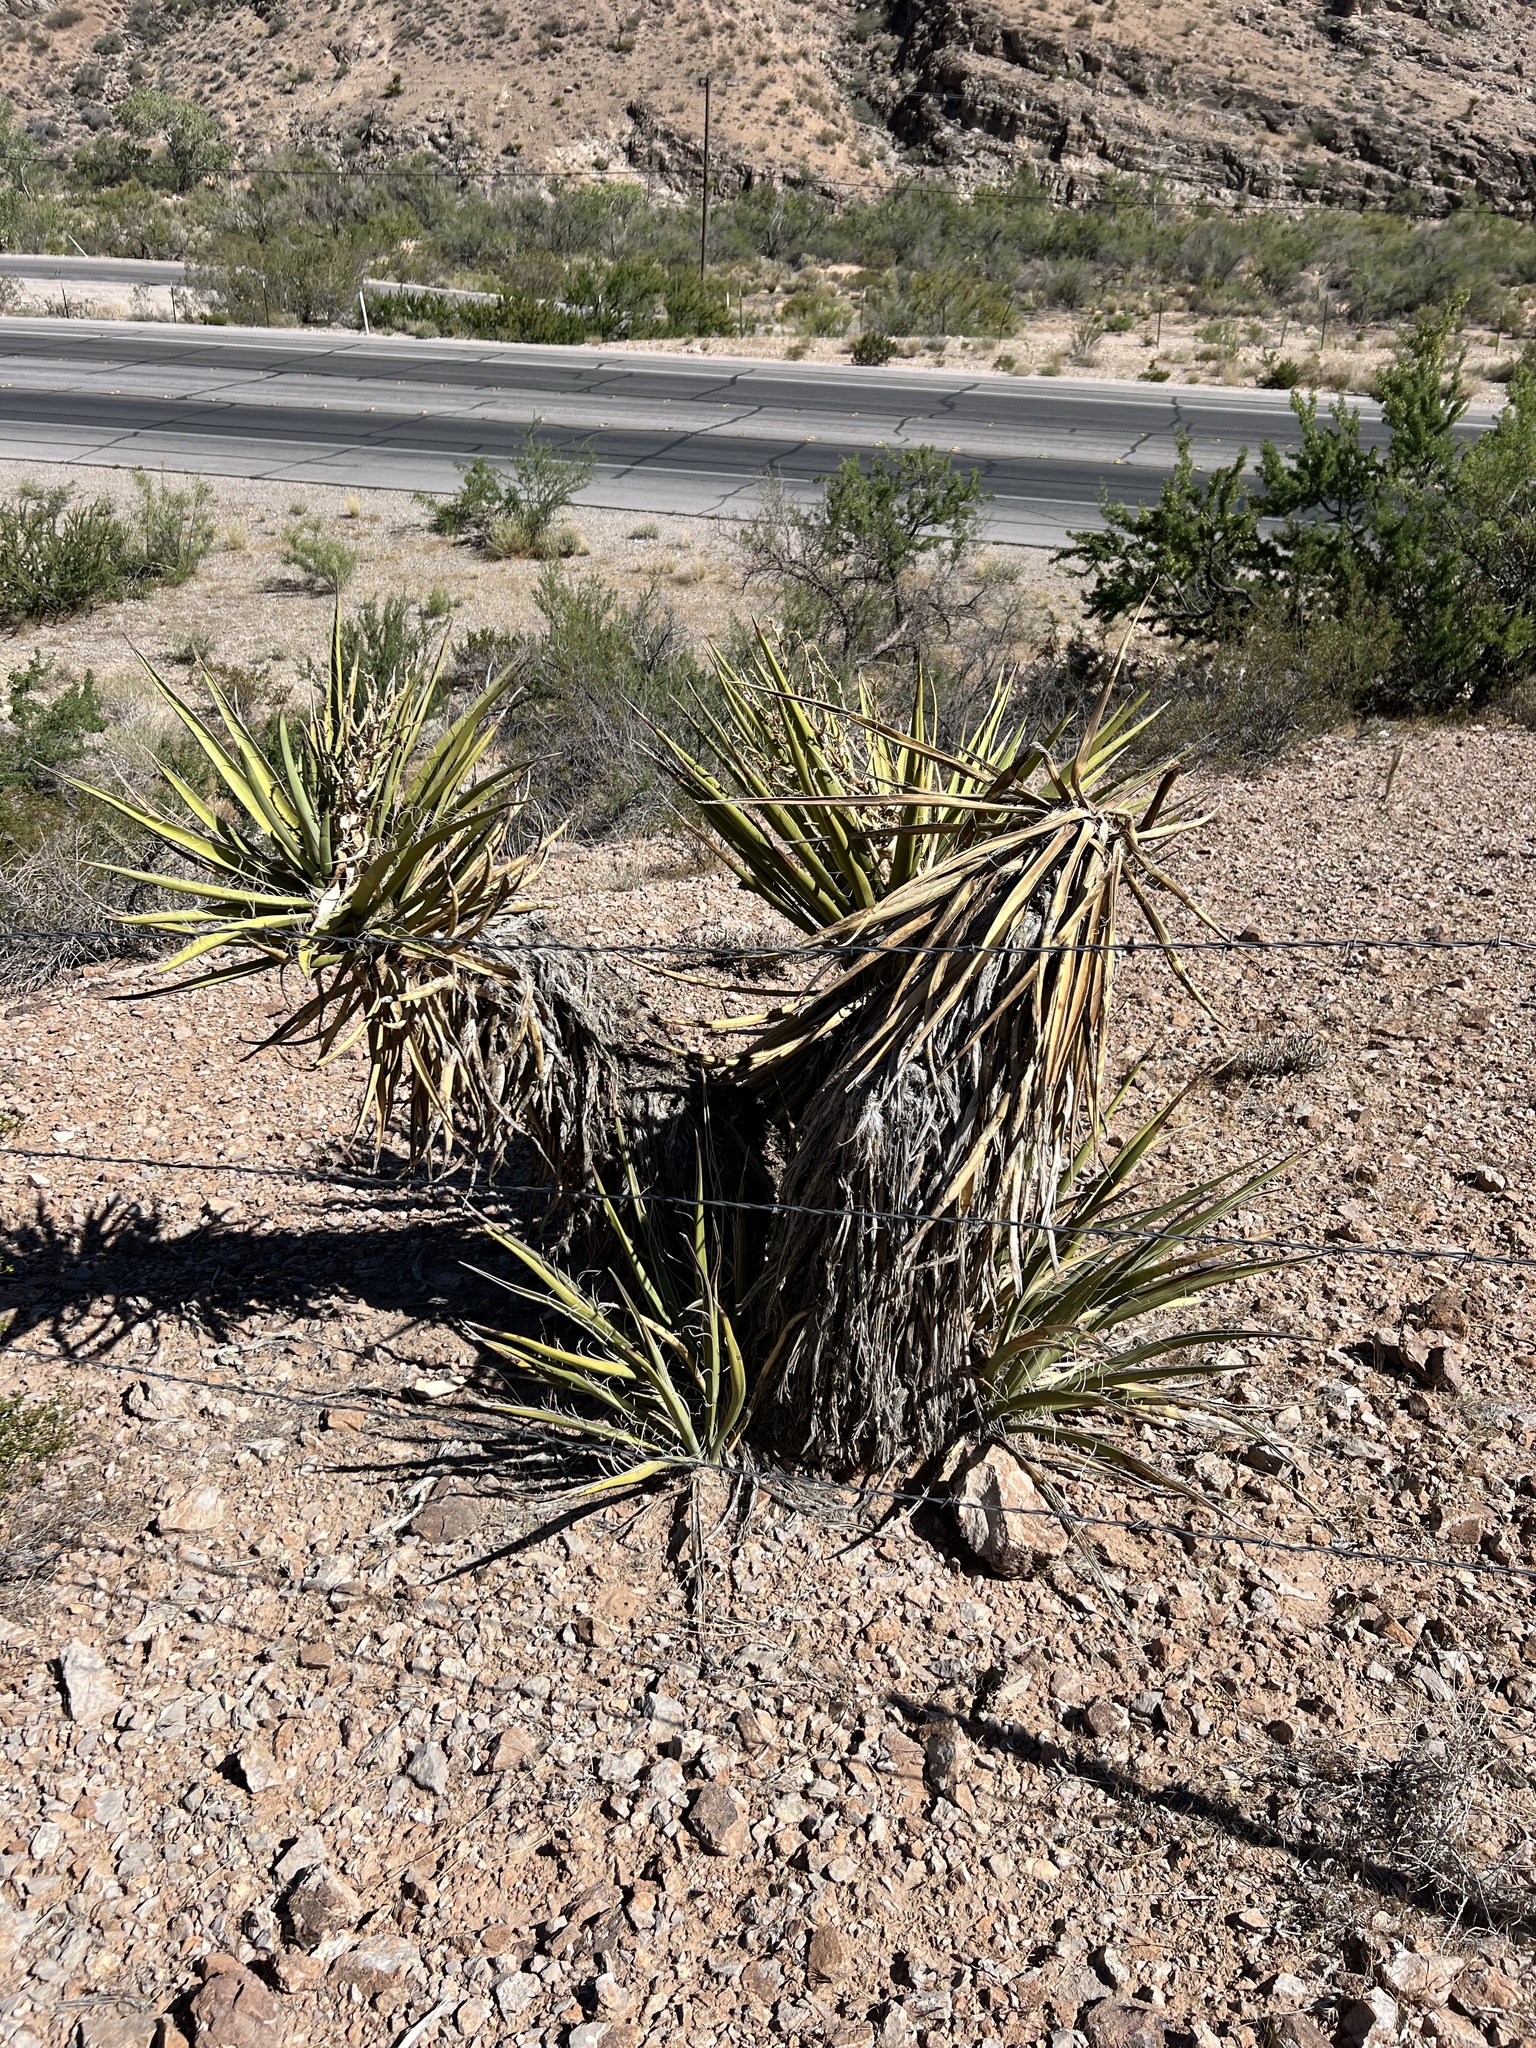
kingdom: Plantae
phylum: Tracheophyta
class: Liliopsida
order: Asparagales
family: Asparagaceae
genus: Yucca
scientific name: Yucca schidigera
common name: Mojave yucca
